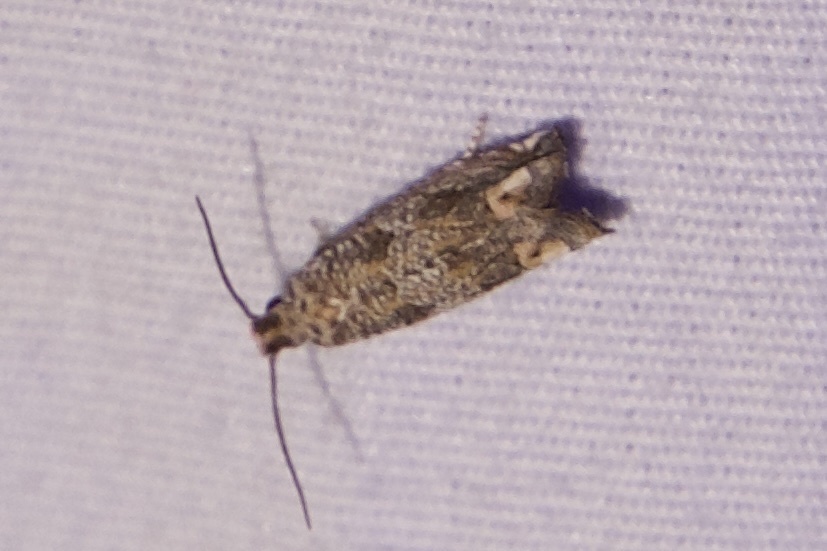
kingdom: Animalia
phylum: Arthropoda
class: Insecta
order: Lepidoptera
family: Tortricidae
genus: Epiblema
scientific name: Epiblema abruptana
